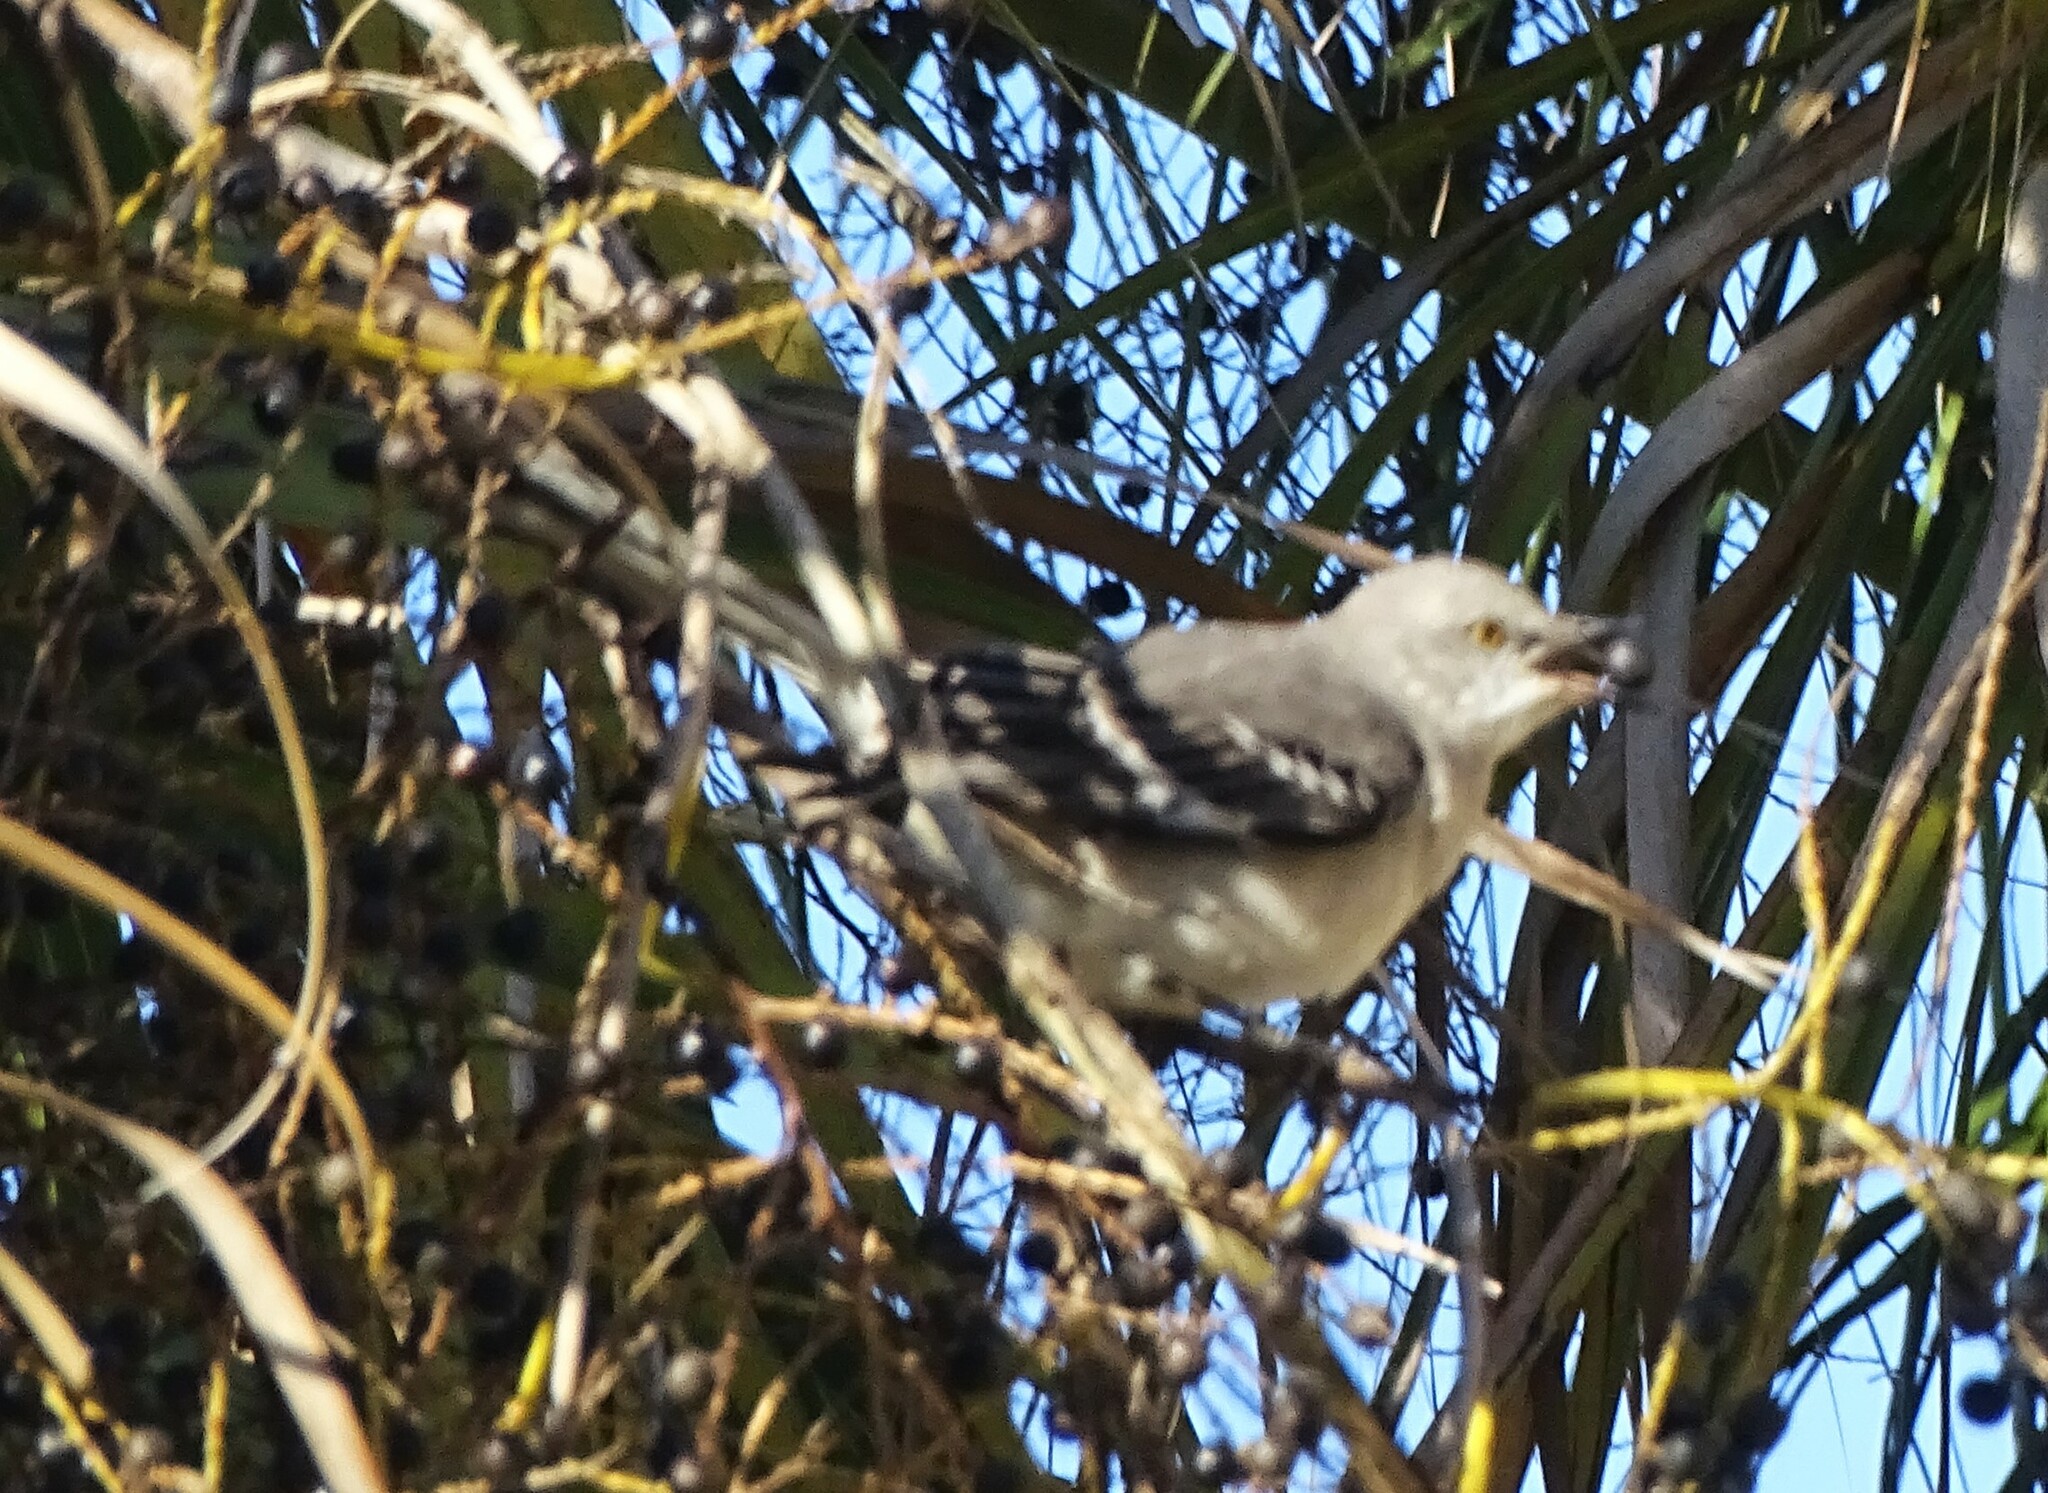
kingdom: Animalia
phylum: Chordata
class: Aves
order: Passeriformes
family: Mimidae
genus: Mimus
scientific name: Mimus polyglottos
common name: Northern mockingbird
